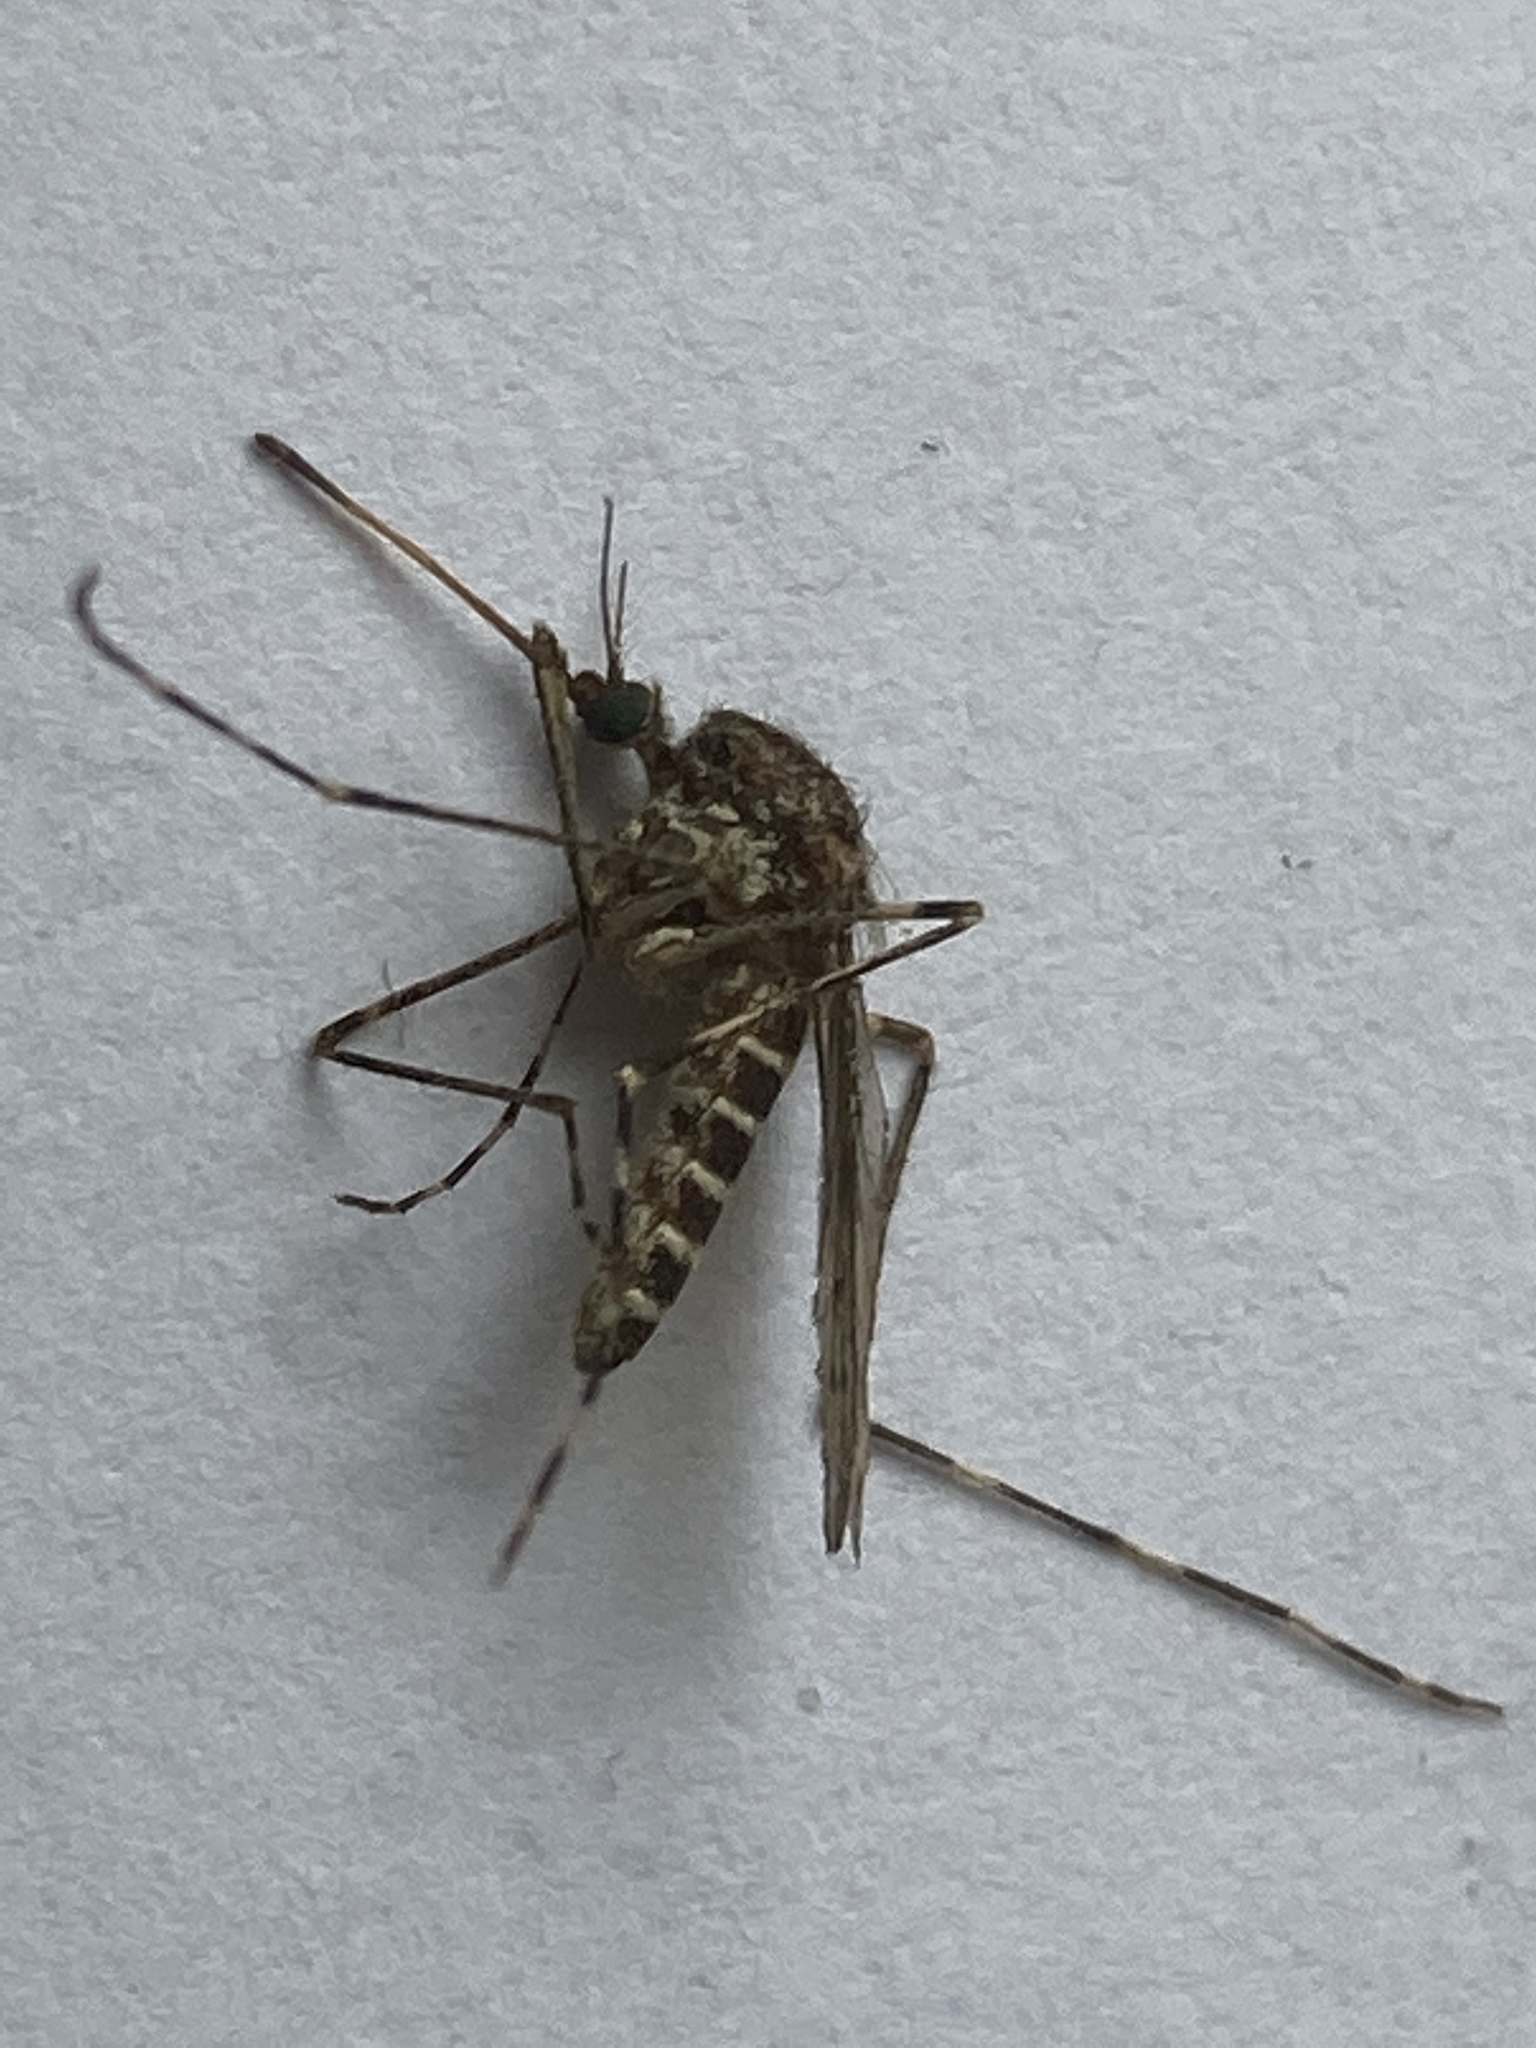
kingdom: Animalia
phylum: Arthropoda
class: Insecta
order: Diptera
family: Culicidae
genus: Culiseta
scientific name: Culiseta annulata
